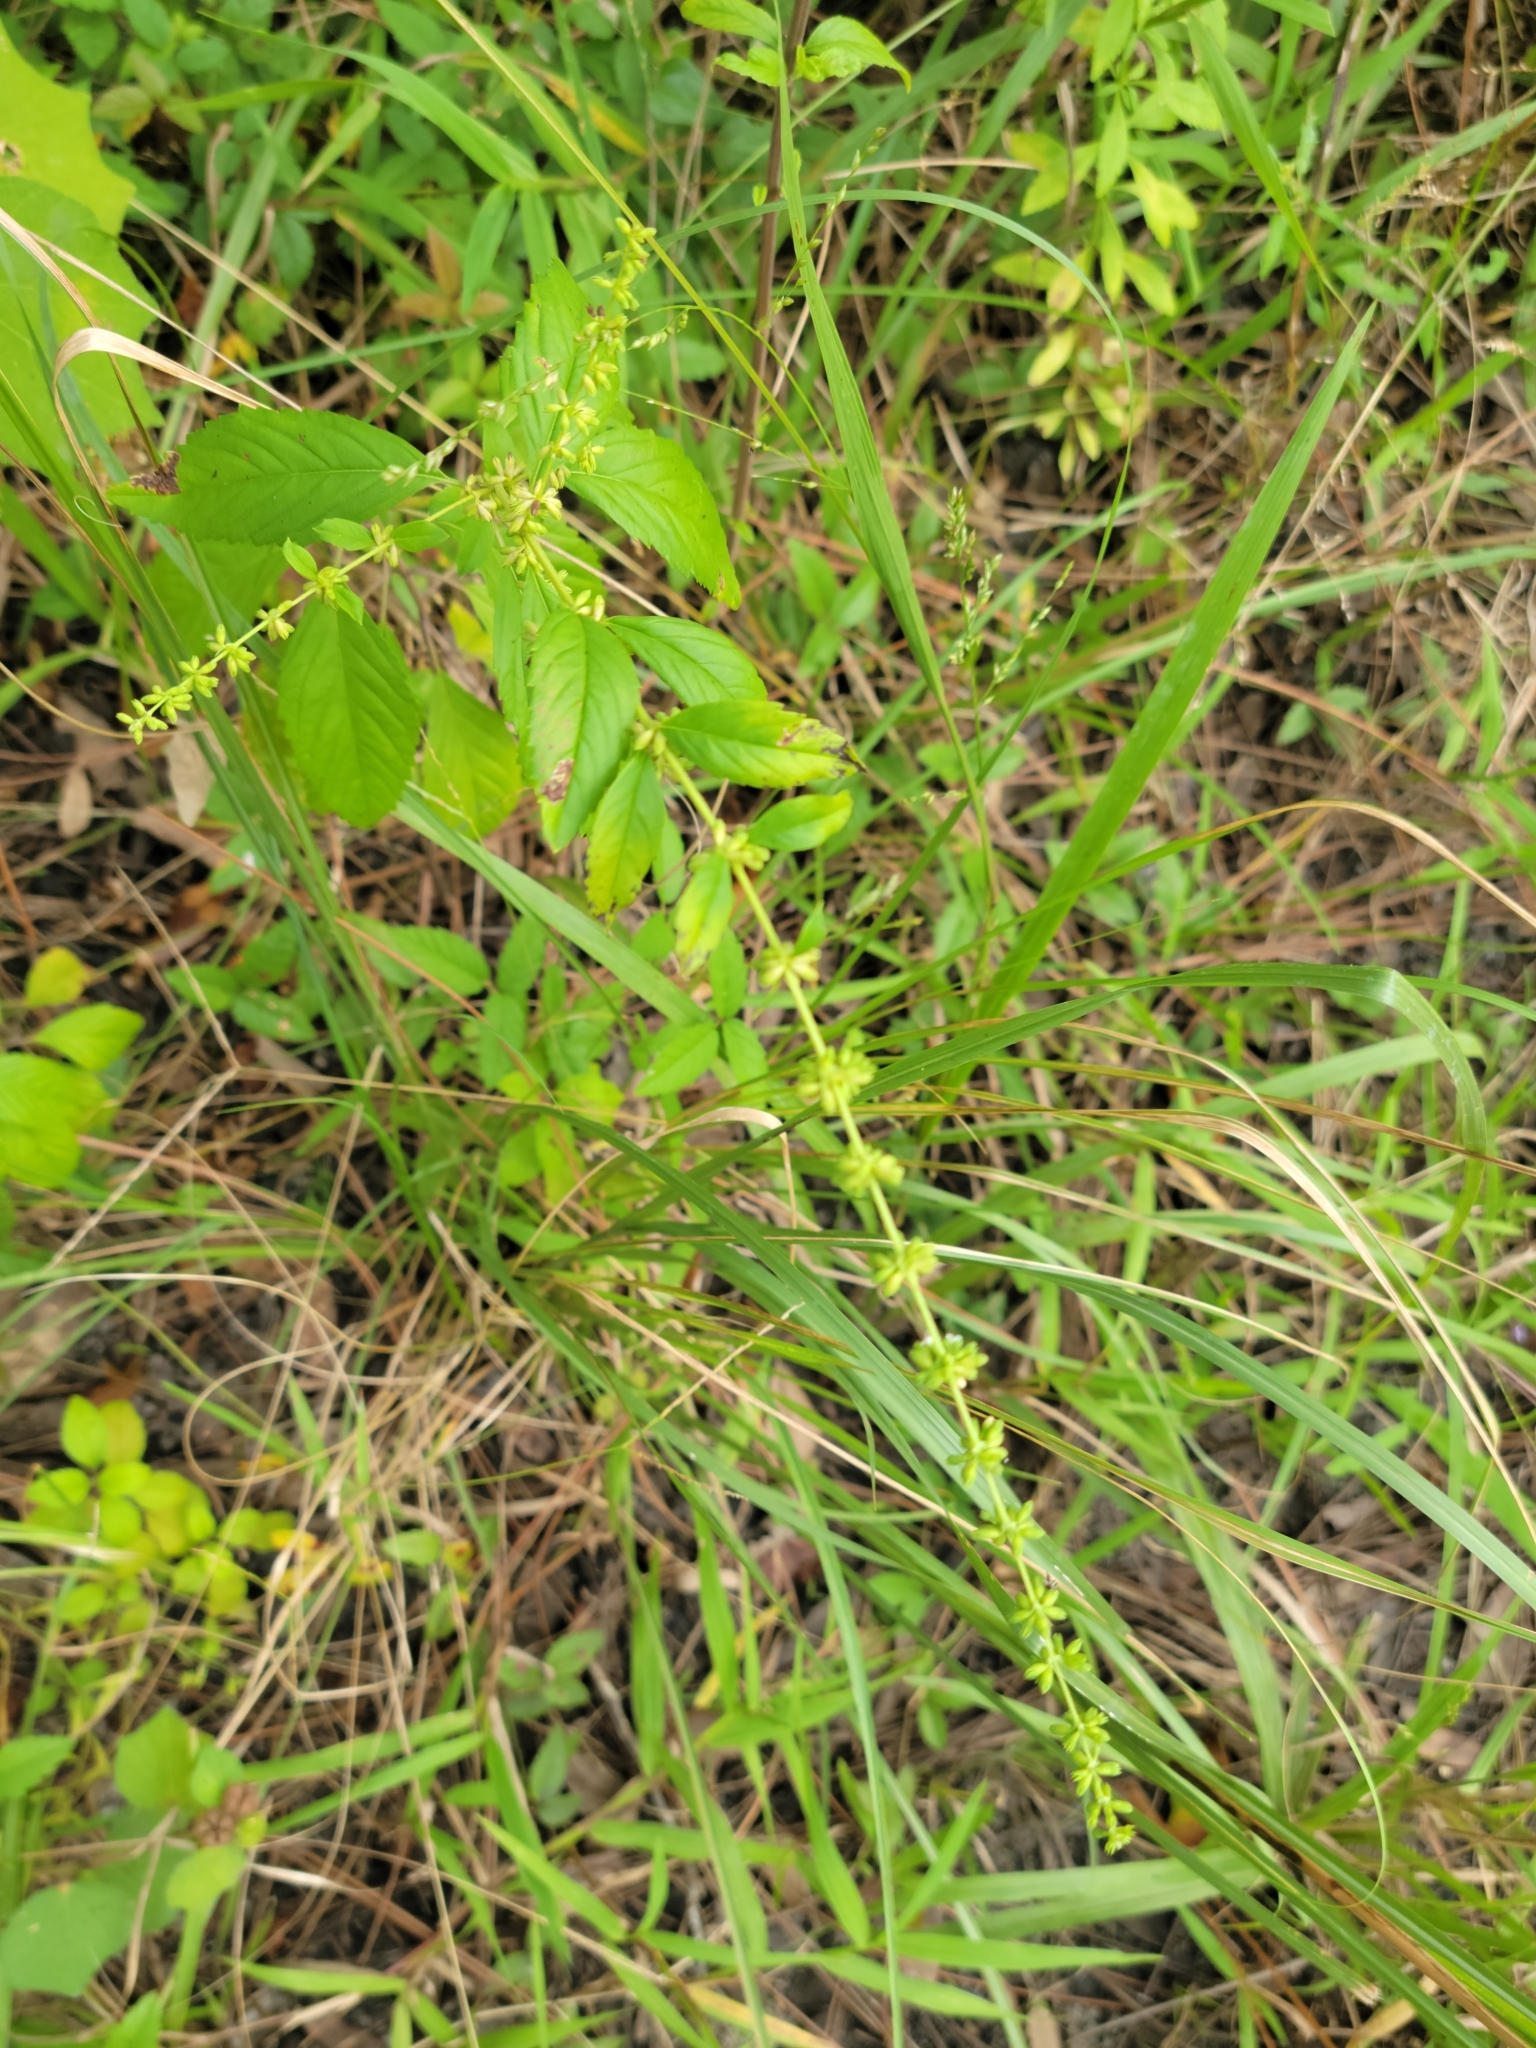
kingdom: Plantae
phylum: Tracheophyta
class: Magnoliopsida
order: Lamiales
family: Lamiaceae
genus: Condea
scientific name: Condea verticillata
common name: John charles
